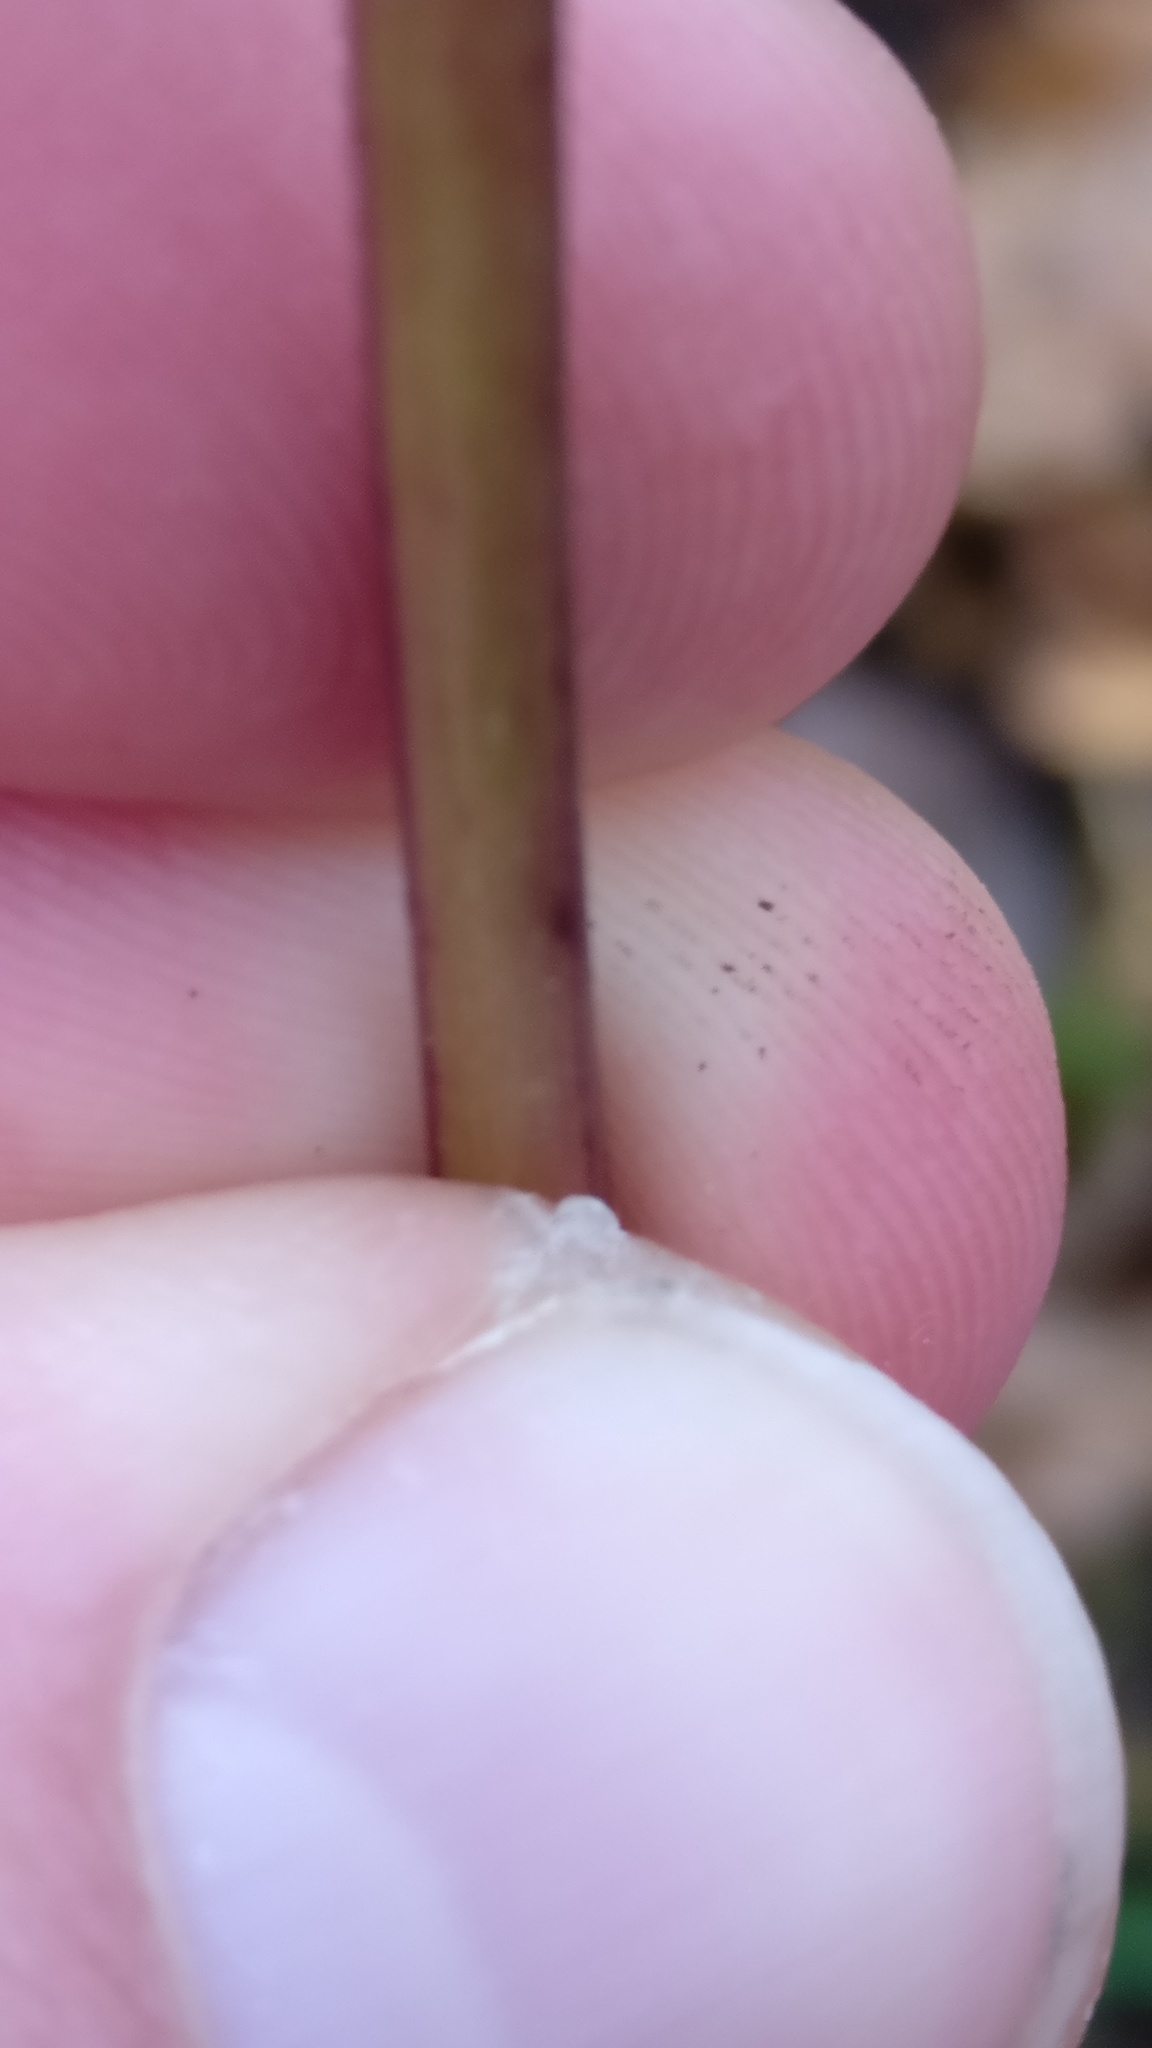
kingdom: Plantae
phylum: Tracheophyta
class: Magnoliopsida
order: Asterales
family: Campanulaceae
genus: Campanula
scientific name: Campanula persicifolia
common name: Peach-leaved bellflower
